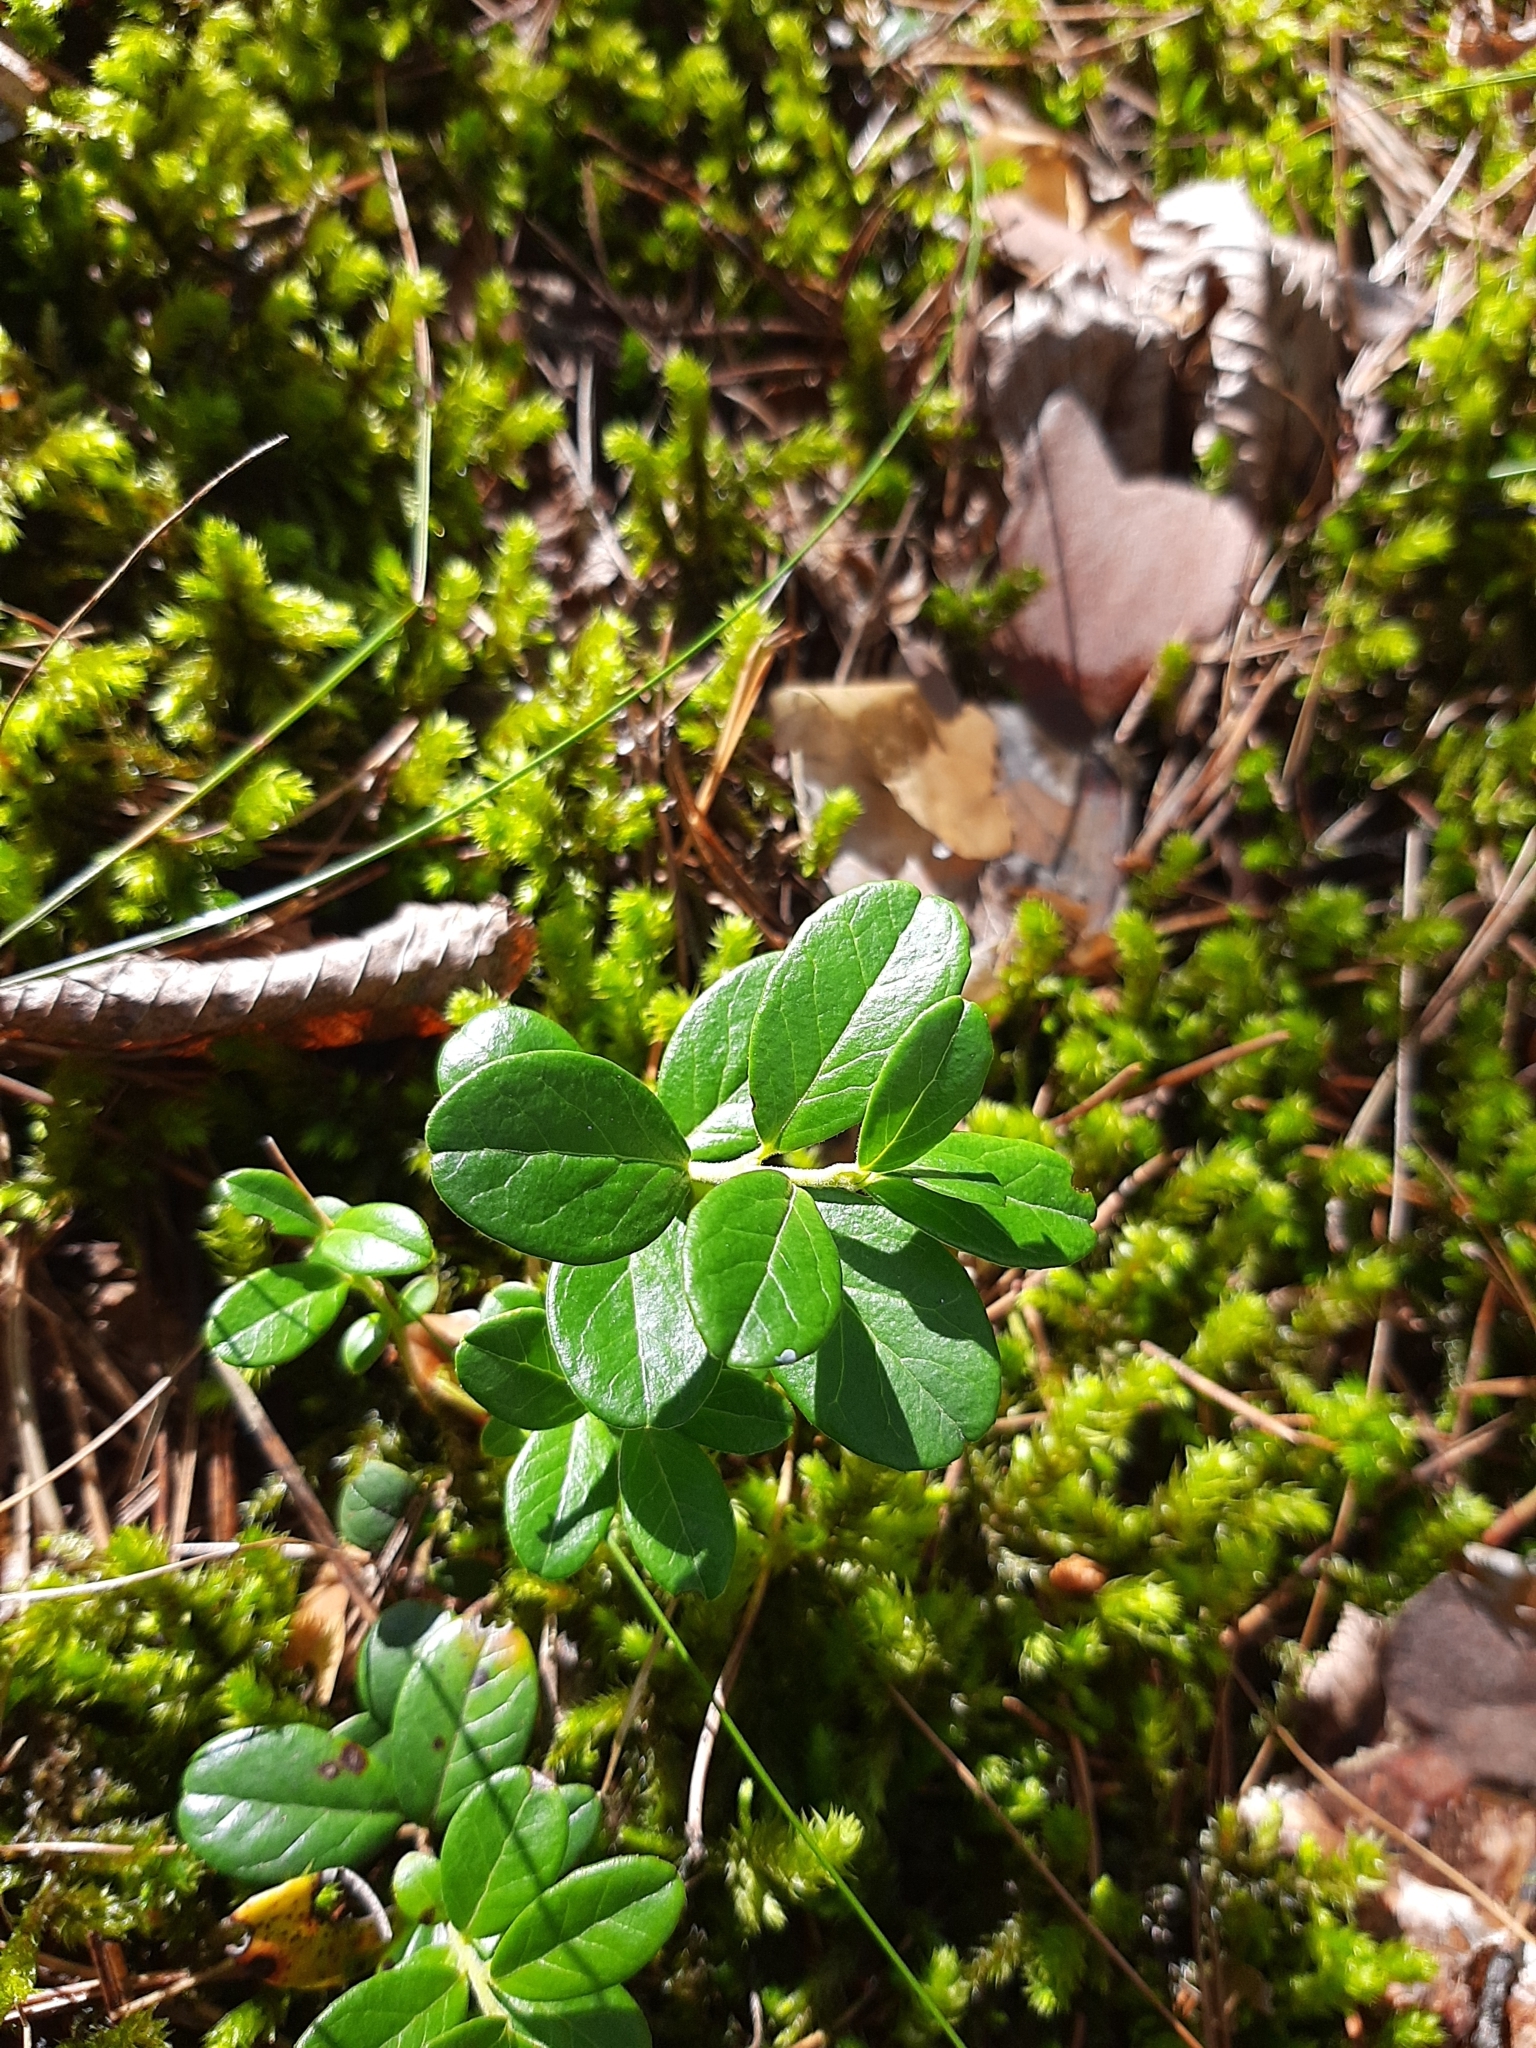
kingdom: Plantae
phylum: Tracheophyta
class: Magnoliopsida
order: Ericales
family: Ericaceae
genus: Vaccinium
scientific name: Vaccinium vitis-idaea
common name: Cowberry
